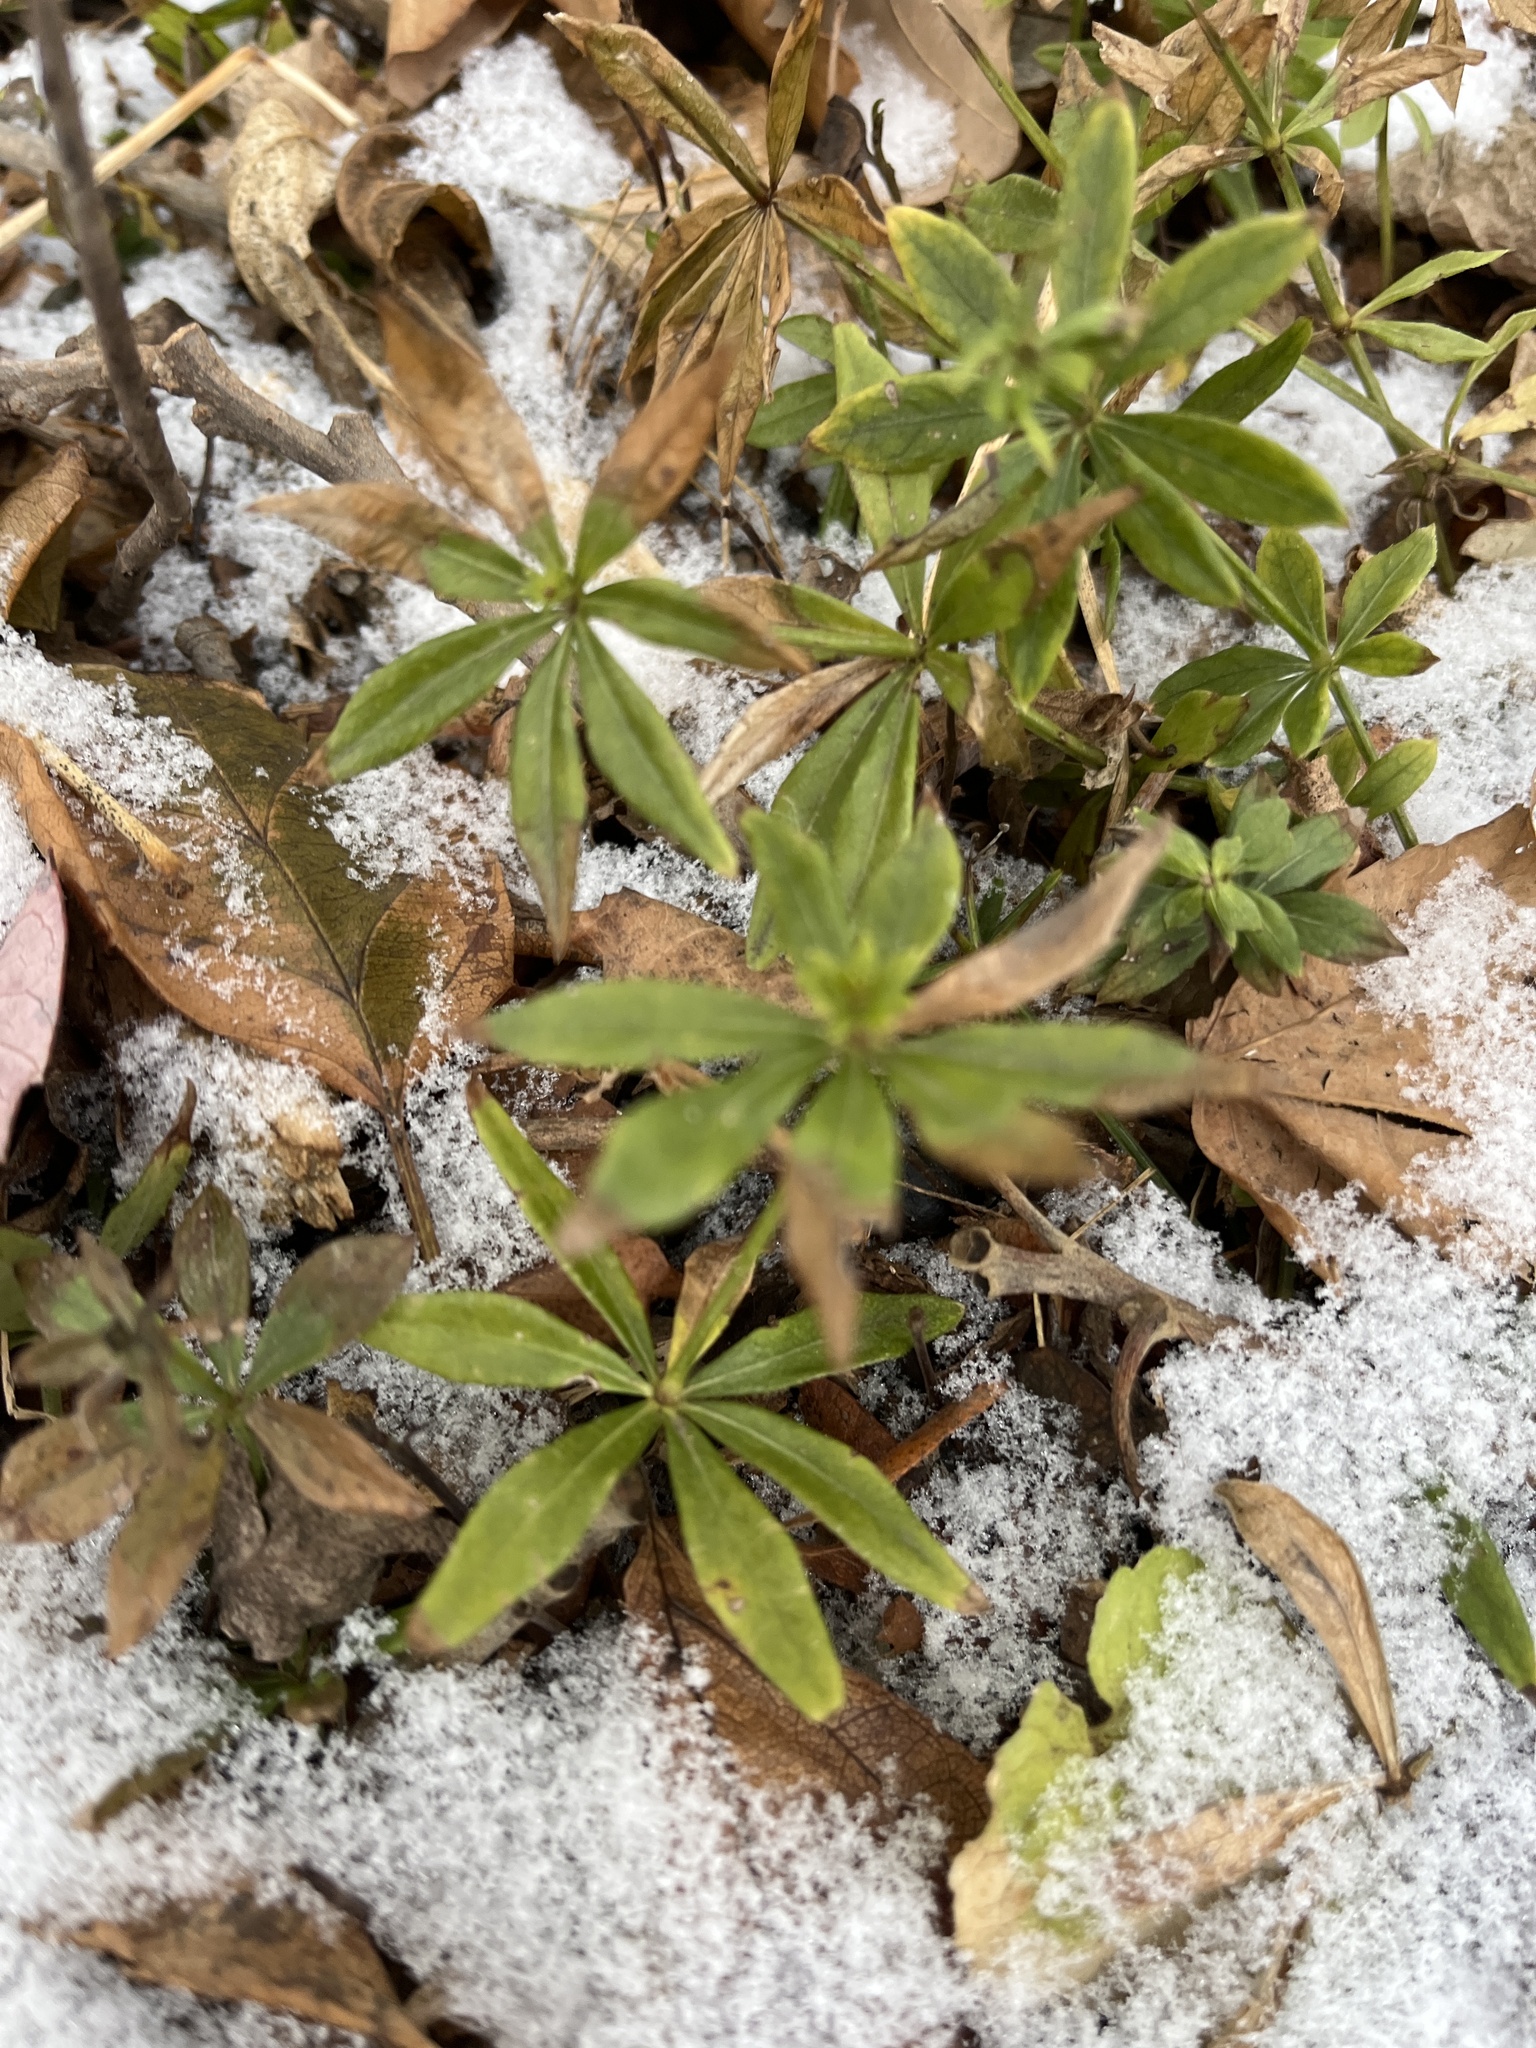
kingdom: Plantae
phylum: Tracheophyta
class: Magnoliopsida
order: Gentianales
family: Rubiaceae
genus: Galium
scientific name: Galium odoratum
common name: Sweet woodruff
